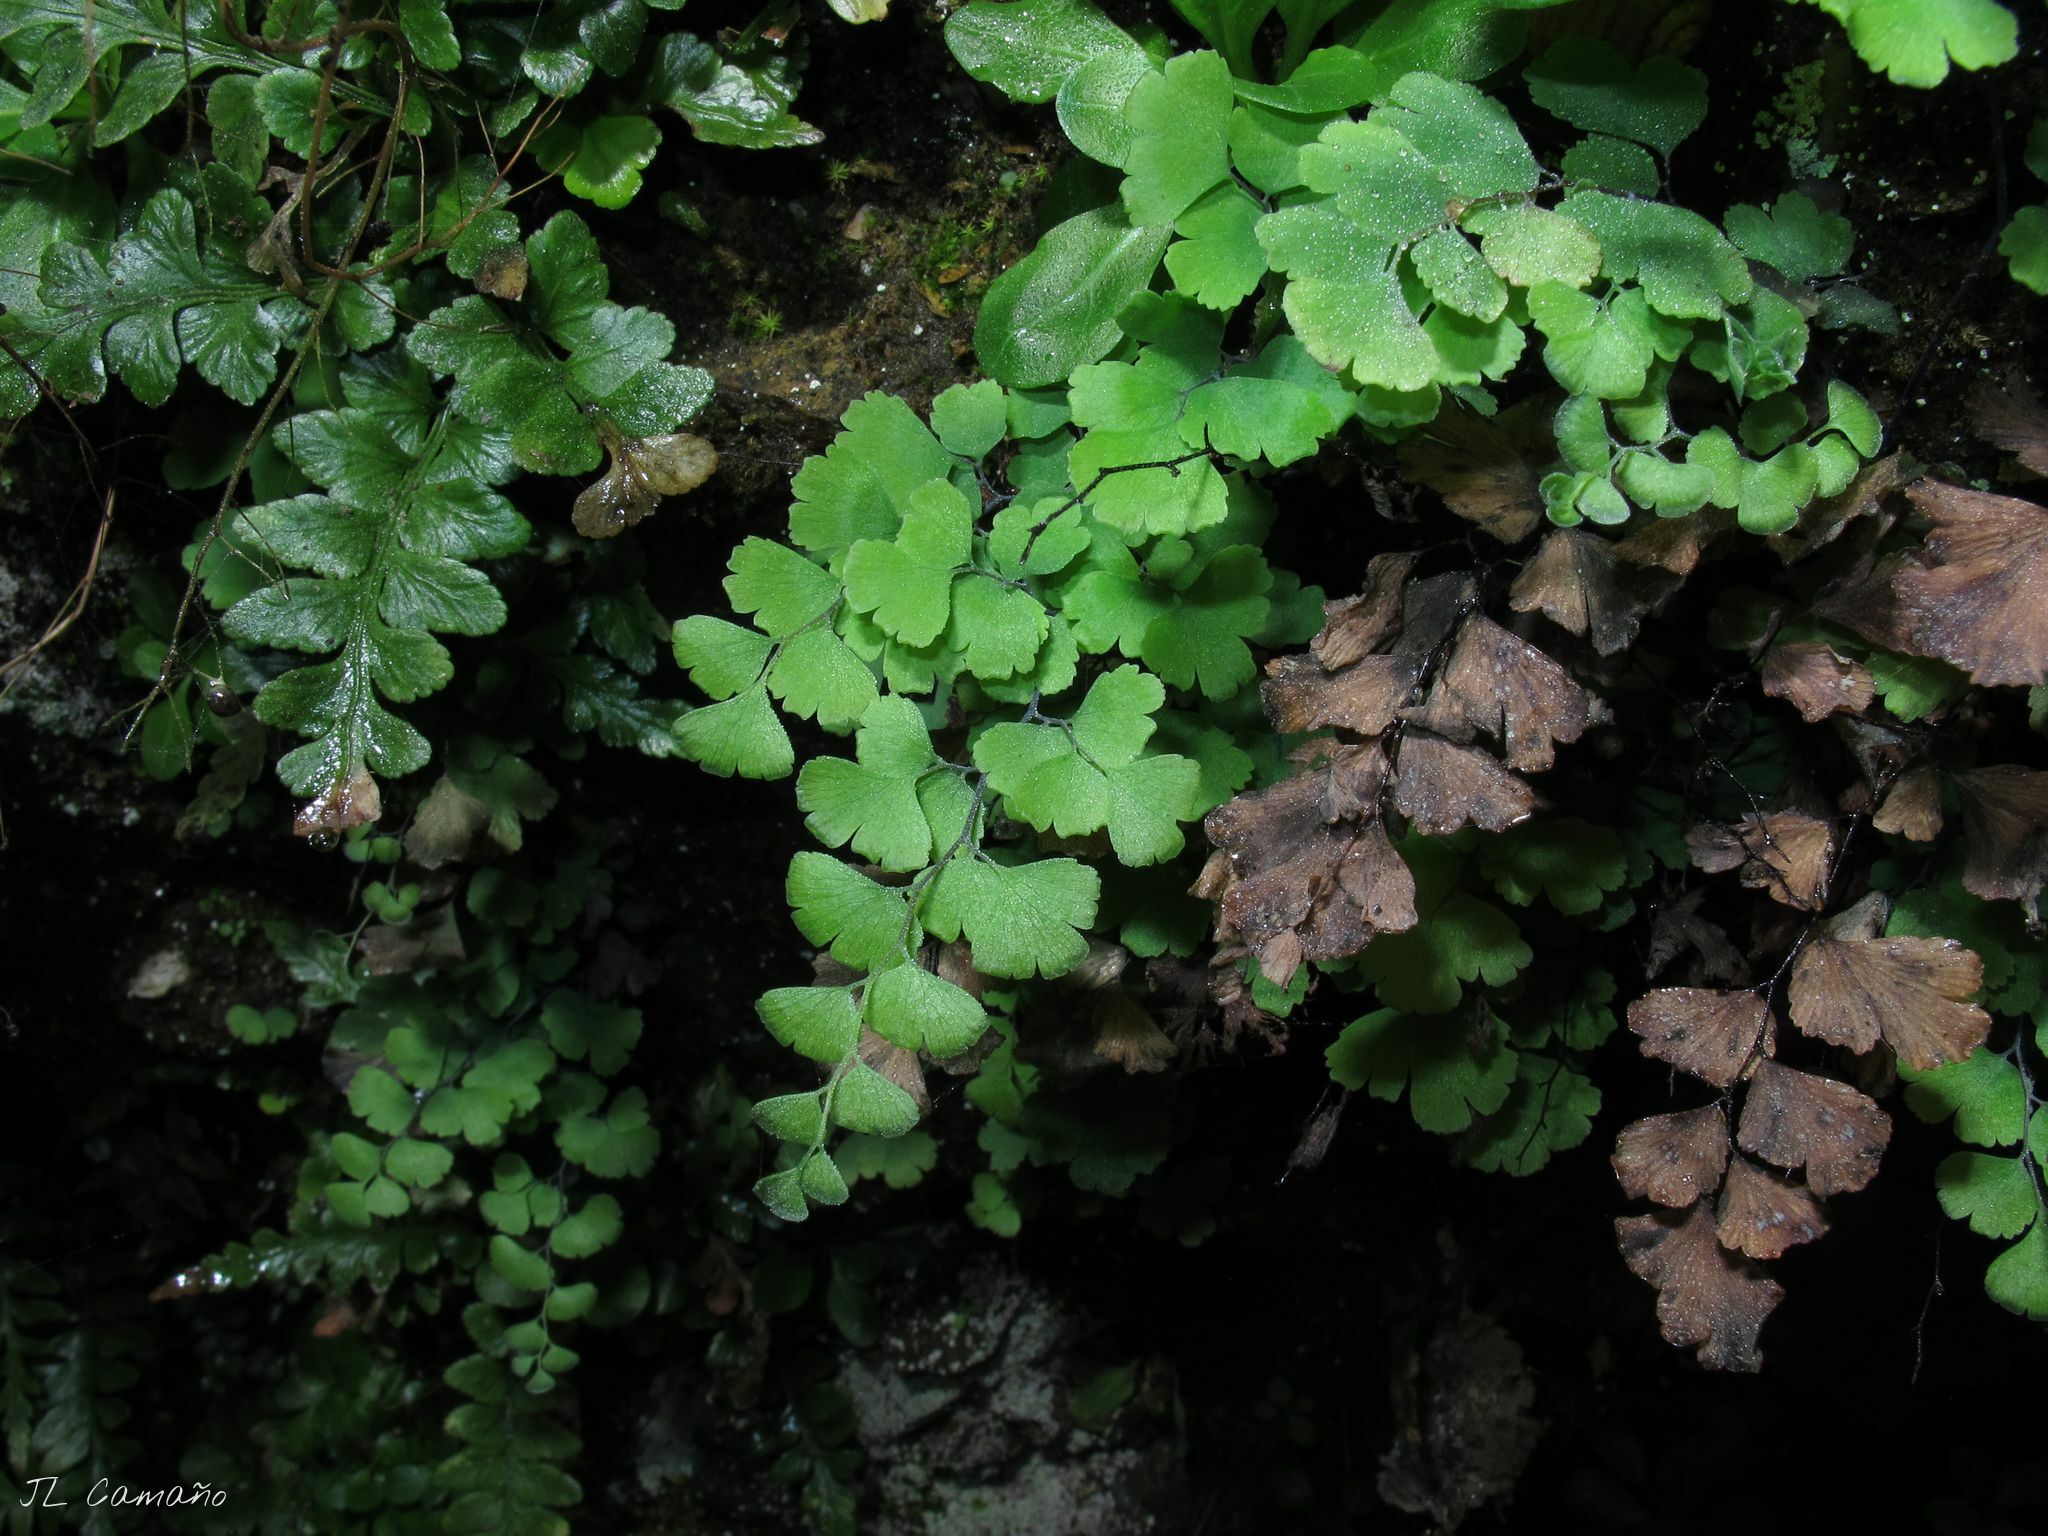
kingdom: Plantae
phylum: Tracheophyta
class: Polypodiopsida
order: Polypodiales
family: Pteridaceae
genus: Adiantum
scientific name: Adiantum capillus-veneris
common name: Maidenhair fern
